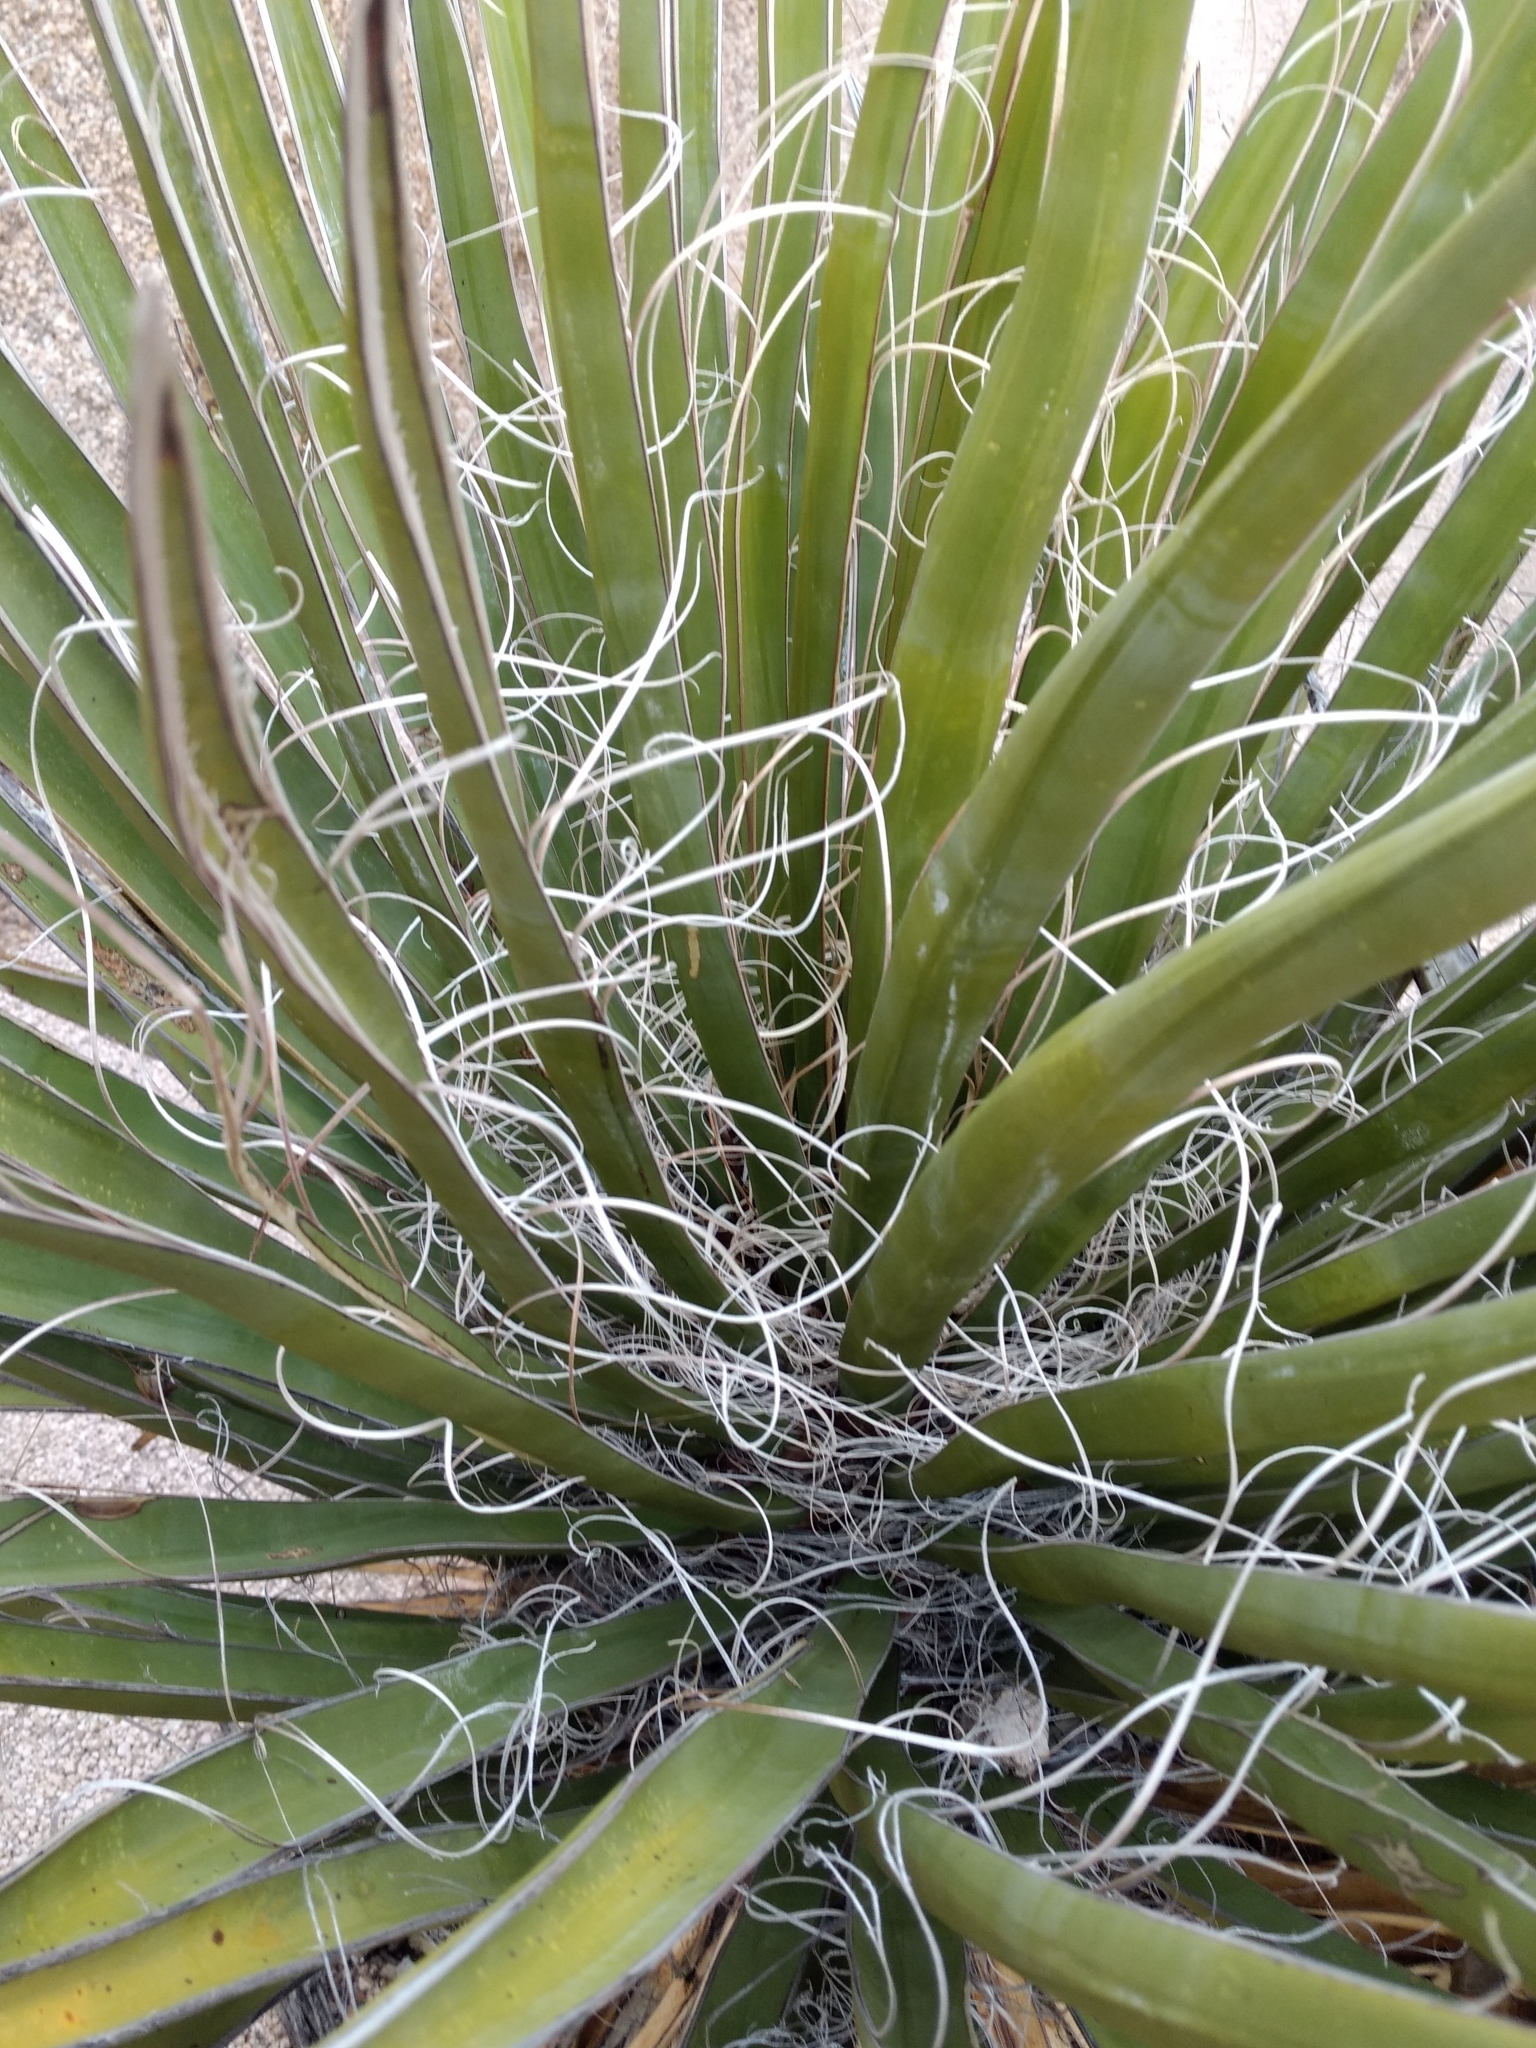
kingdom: Plantae
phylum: Tracheophyta
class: Liliopsida
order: Asparagales
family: Asparagaceae
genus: Yucca
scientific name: Yucca schidigera
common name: Mojave yucca
